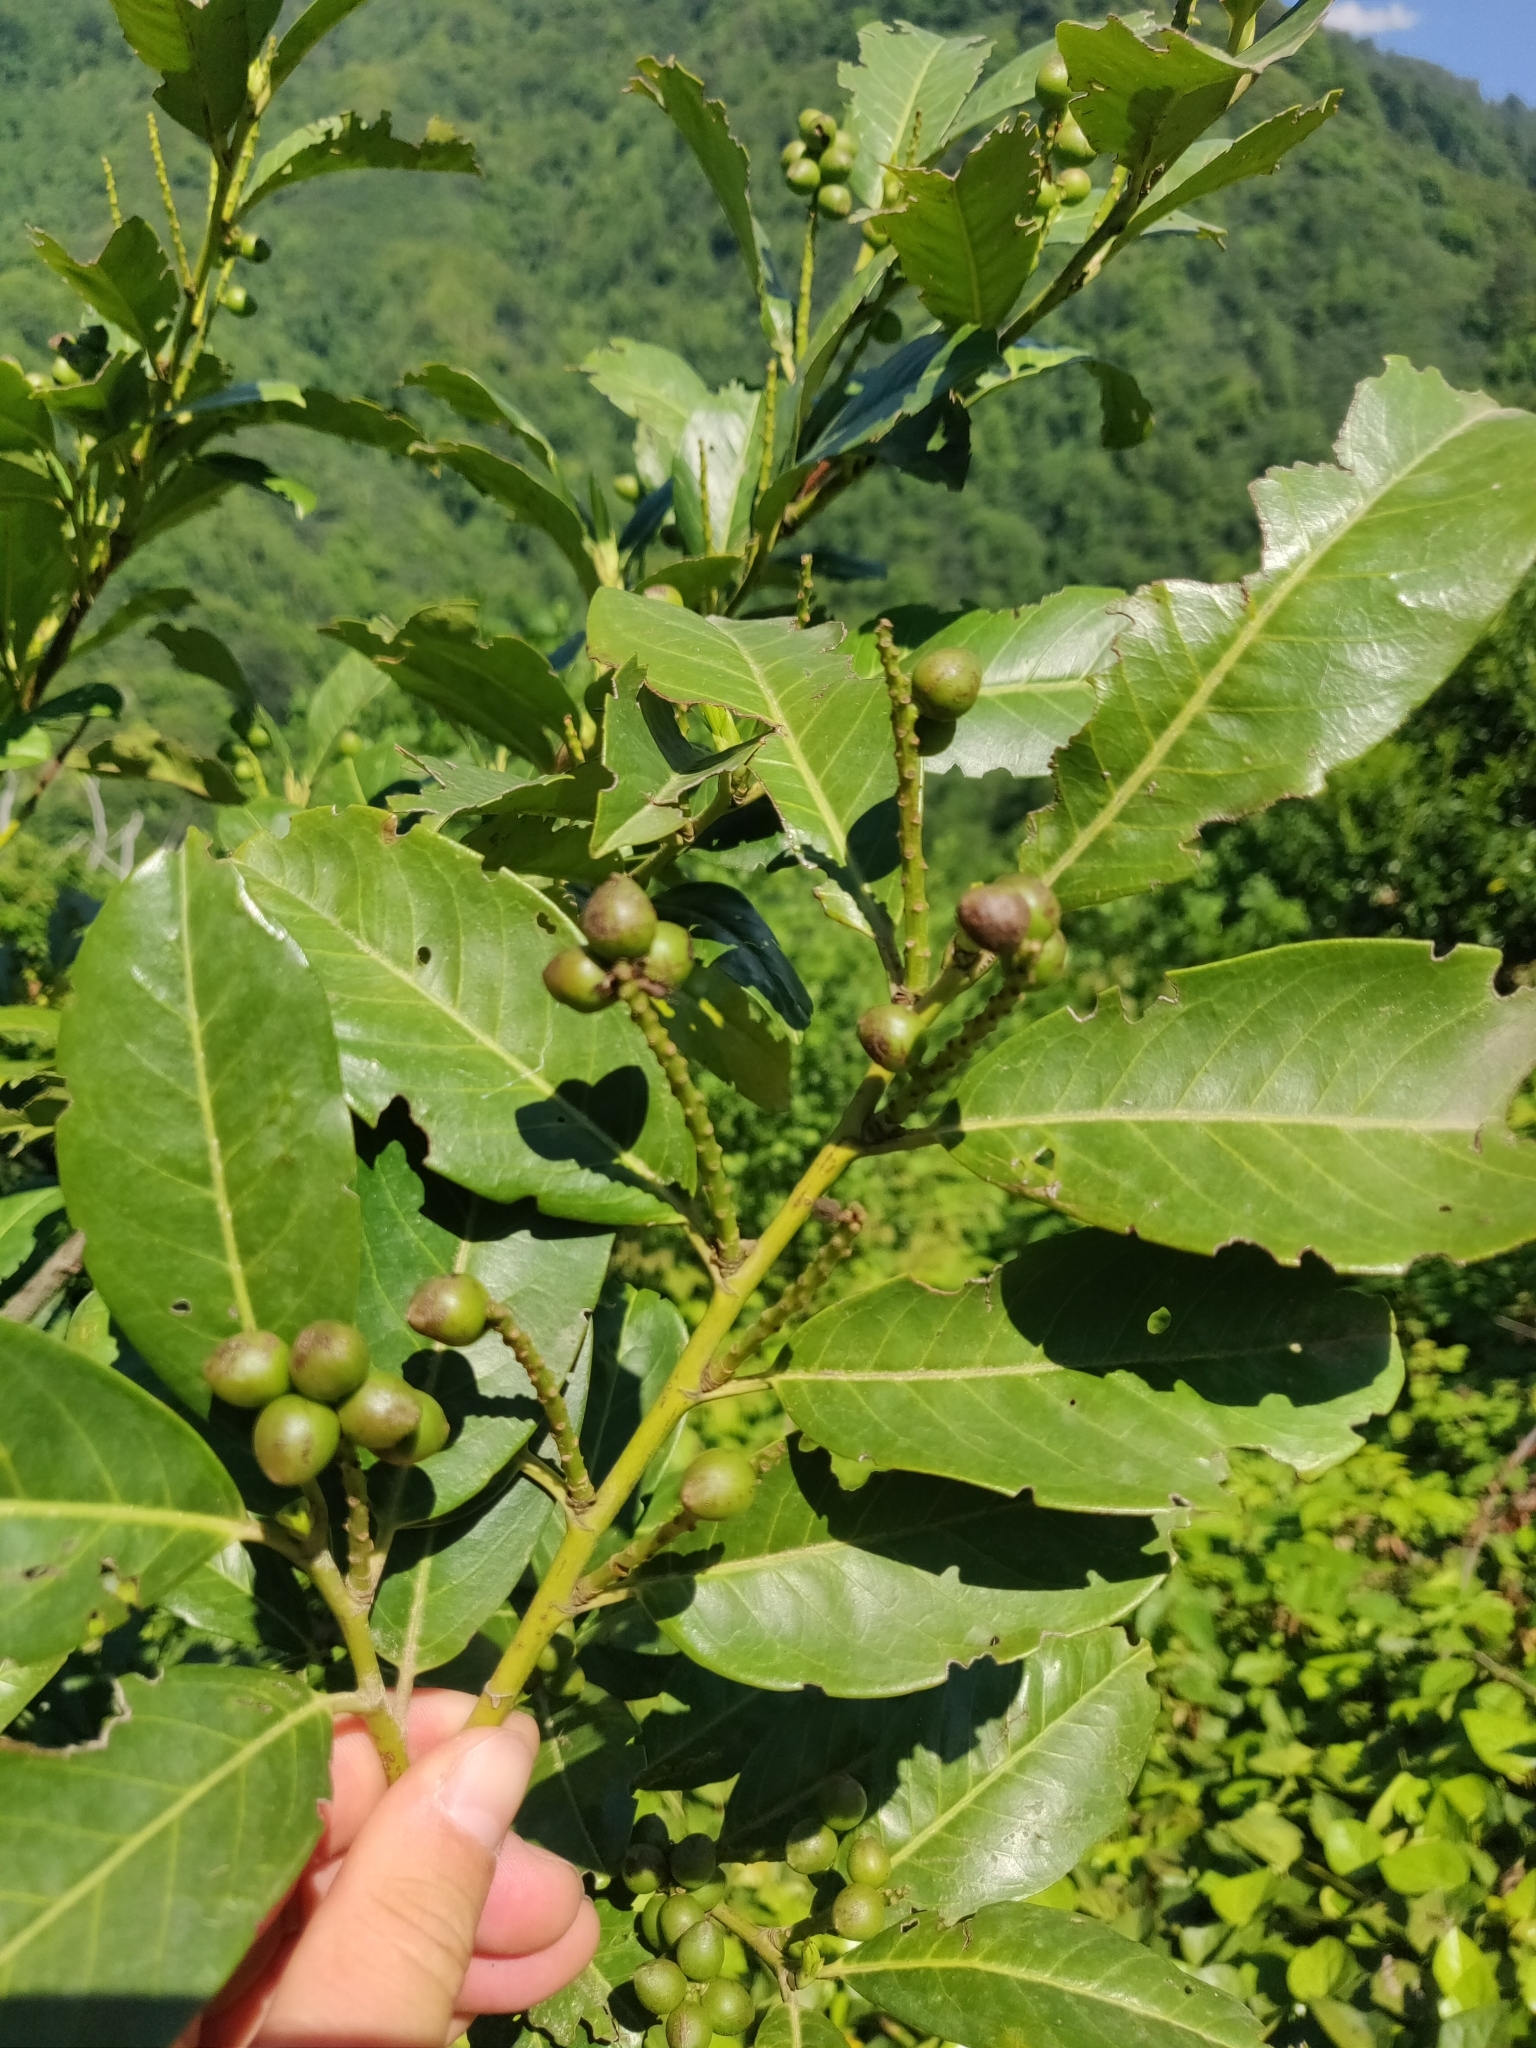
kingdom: Plantae
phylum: Tracheophyta
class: Magnoliopsida
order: Rosales
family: Rosaceae
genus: Prunus
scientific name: Prunus laurocerasus
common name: Cherry laurel
